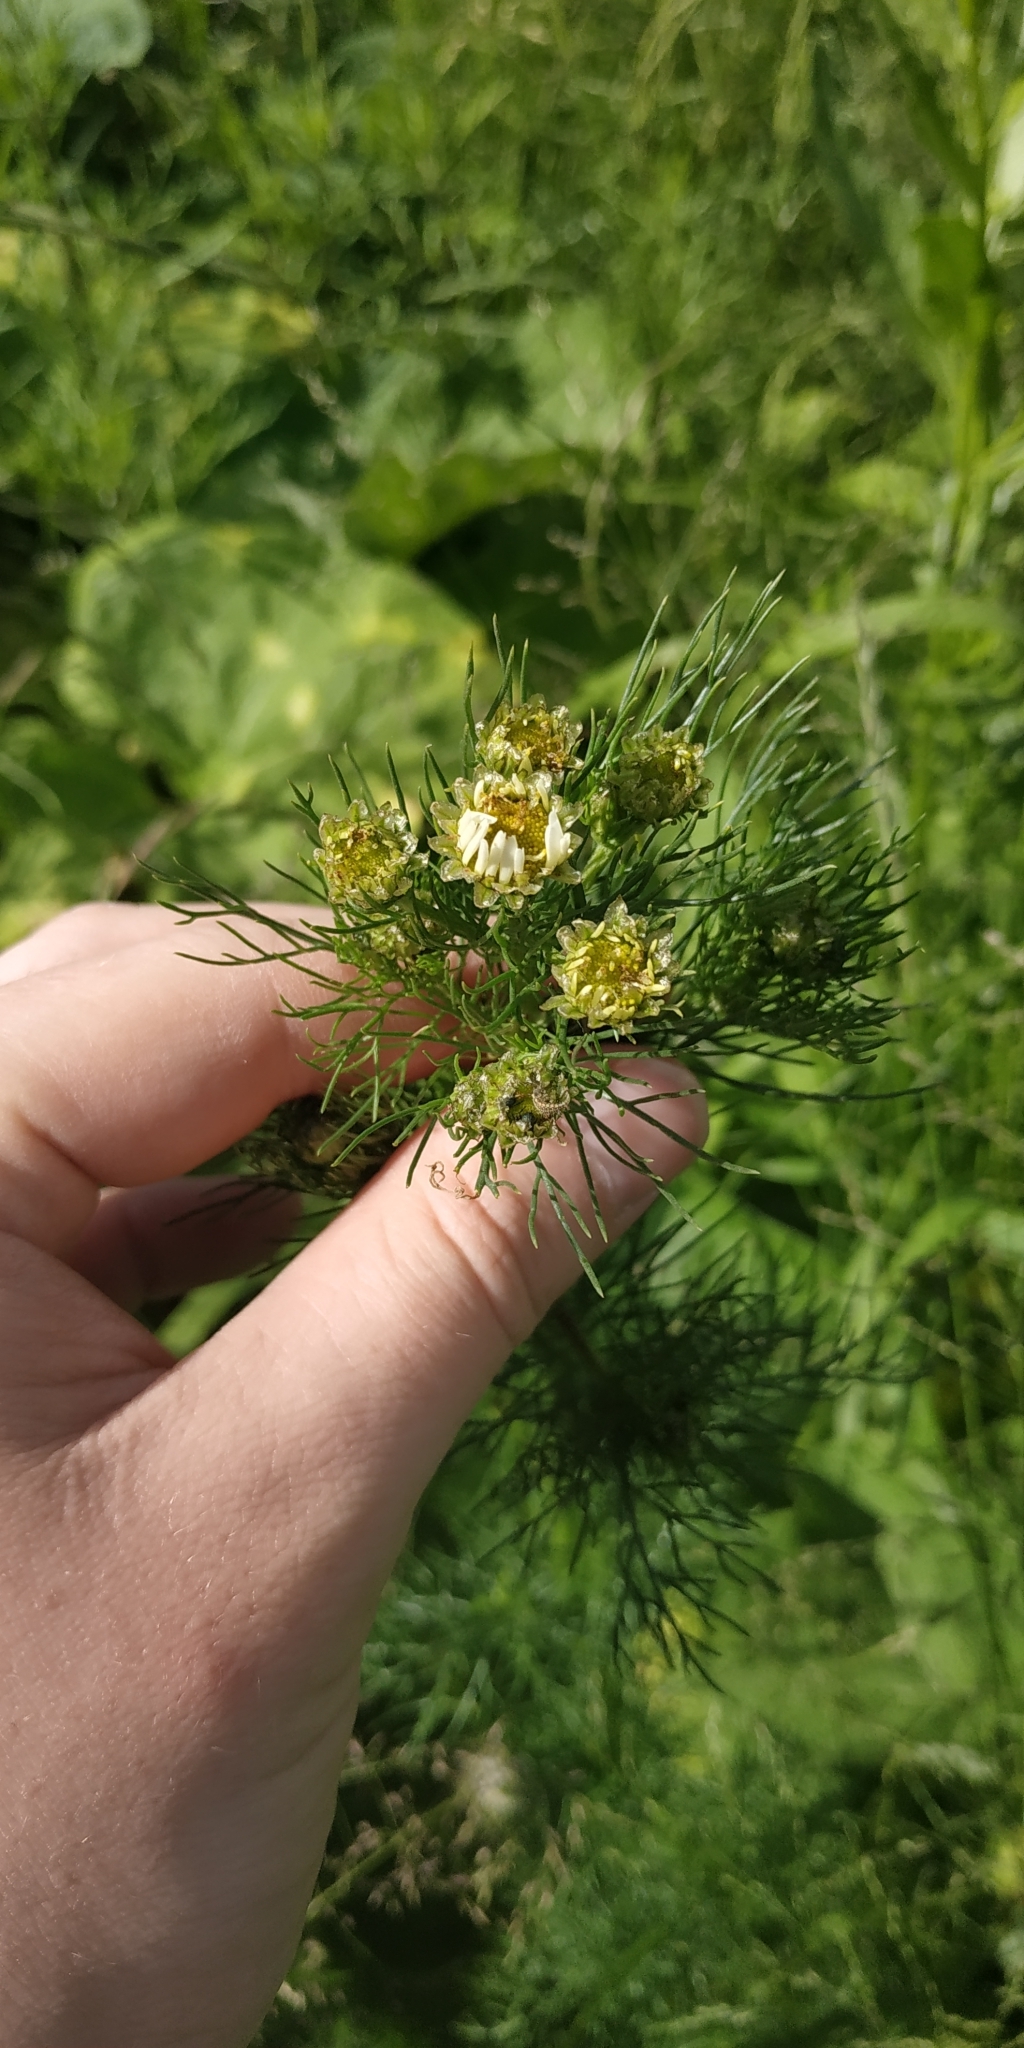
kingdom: Plantae
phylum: Tracheophyta
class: Magnoliopsida
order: Asterales
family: Asteraceae
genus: Tripleurospermum
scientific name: Tripleurospermum inodorum
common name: Scentless mayweed
